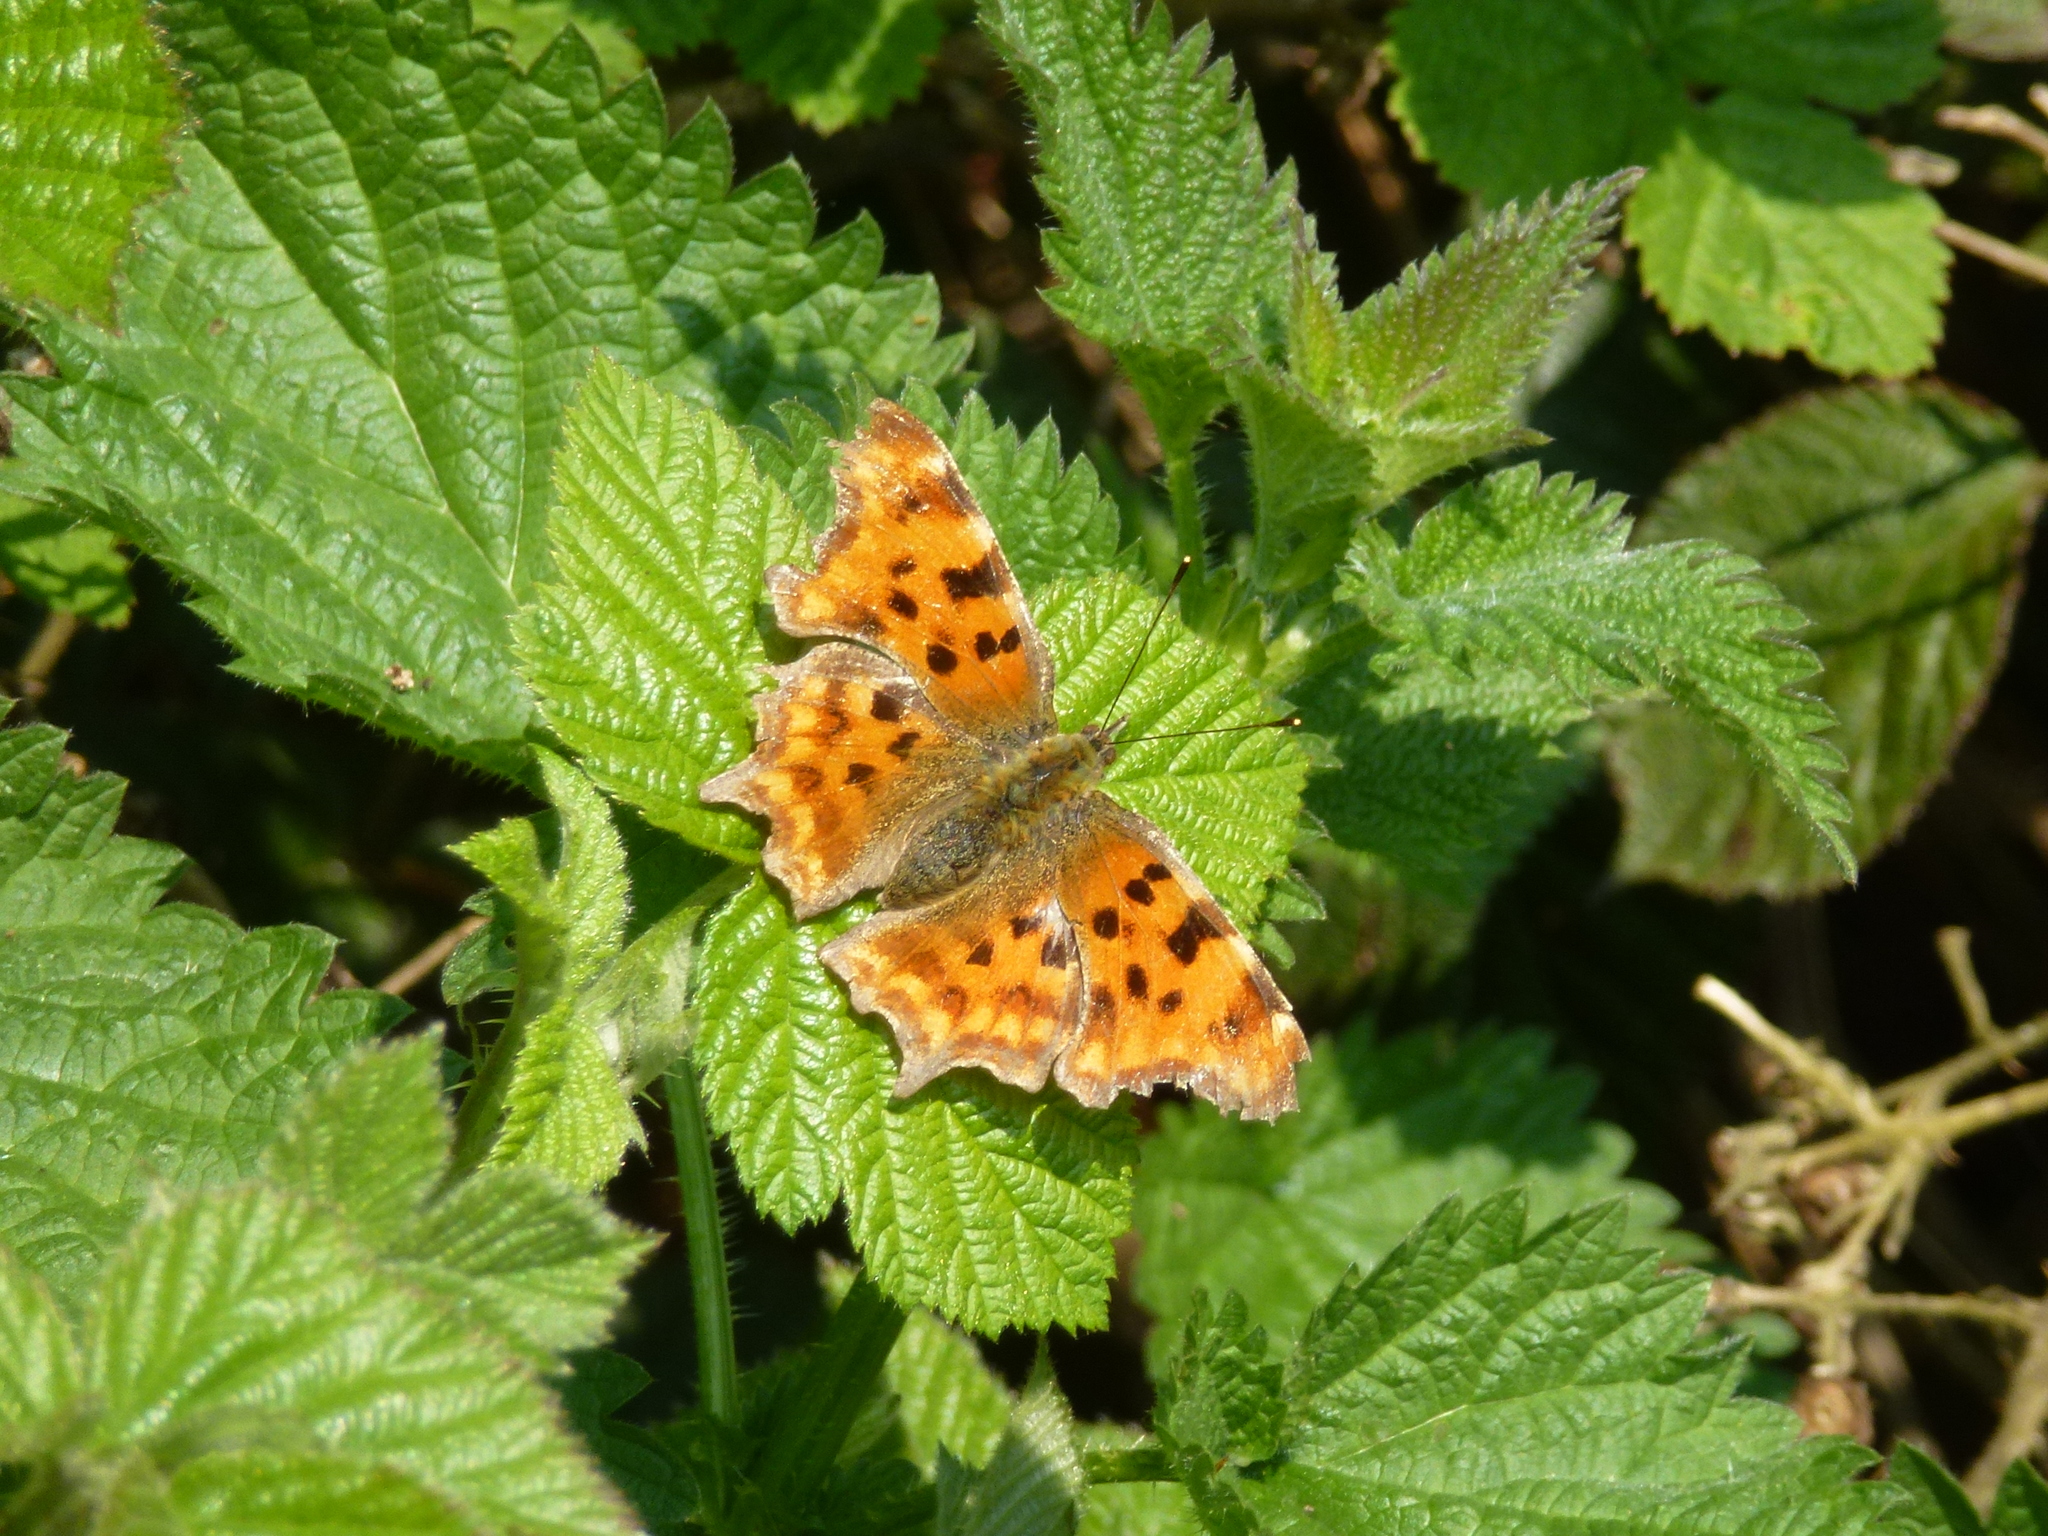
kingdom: Animalia
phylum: Arthropoda
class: Insecta
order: Lepidoptera
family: Nymphalidae
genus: Polygonia
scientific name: Polygonia c-album
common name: Comma
